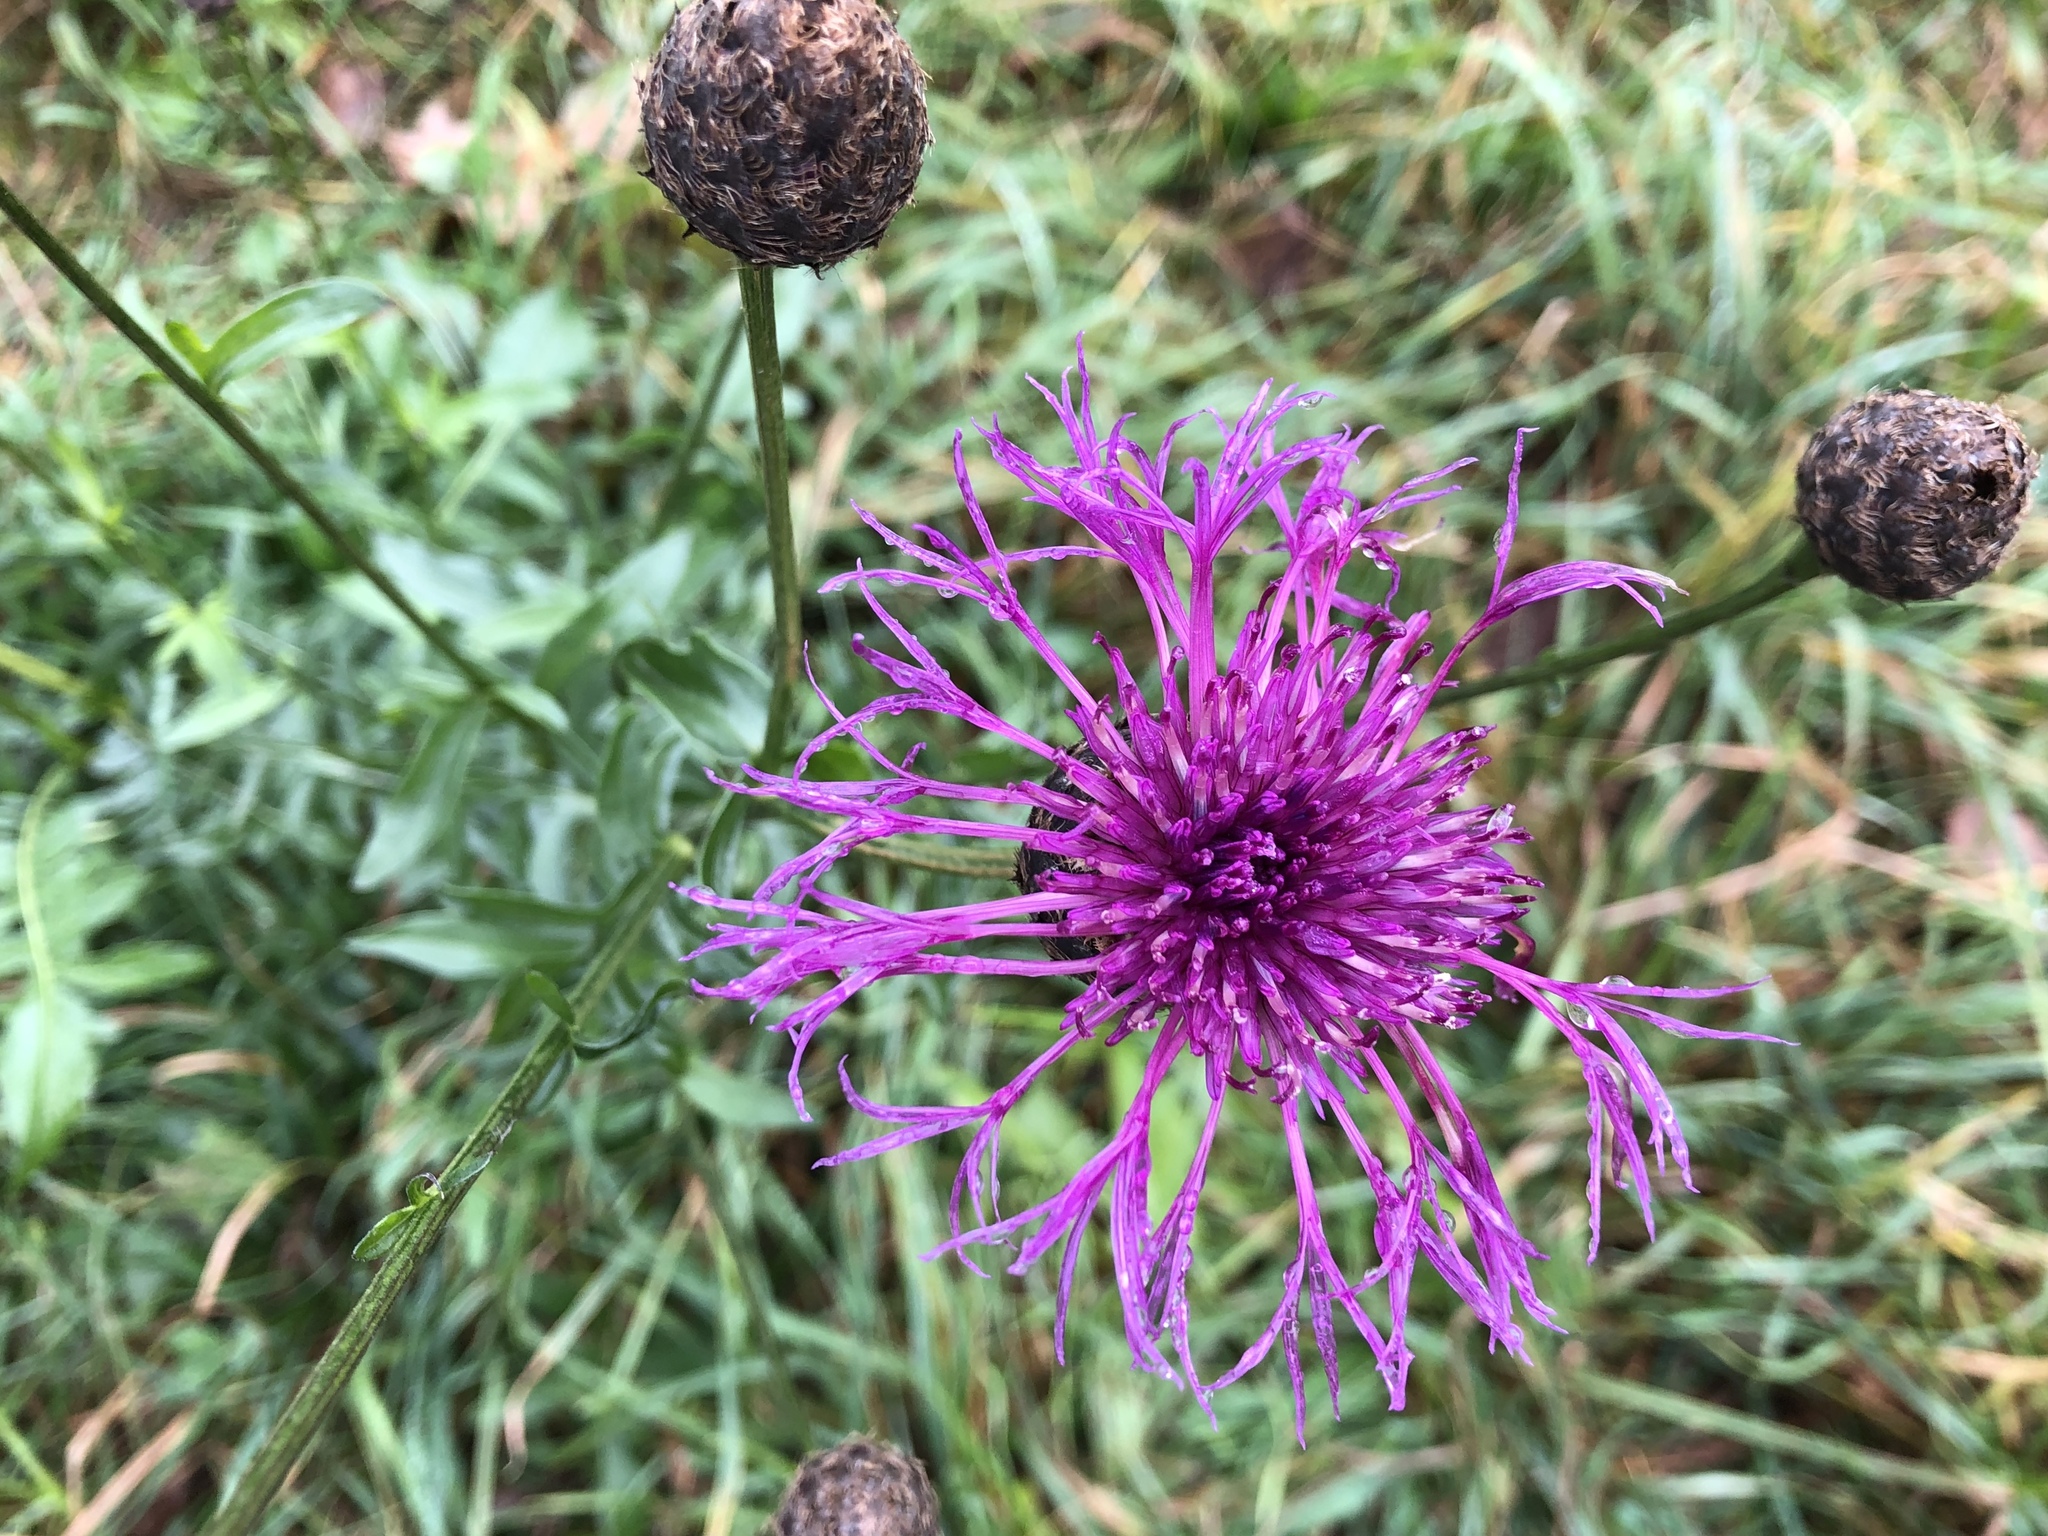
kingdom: Plantae
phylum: Tracheophyta
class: Magnoliopsida
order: Asterales
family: Asteraceae
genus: Centaurea
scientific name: Centaurea scabiosa
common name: Greater knapweed
